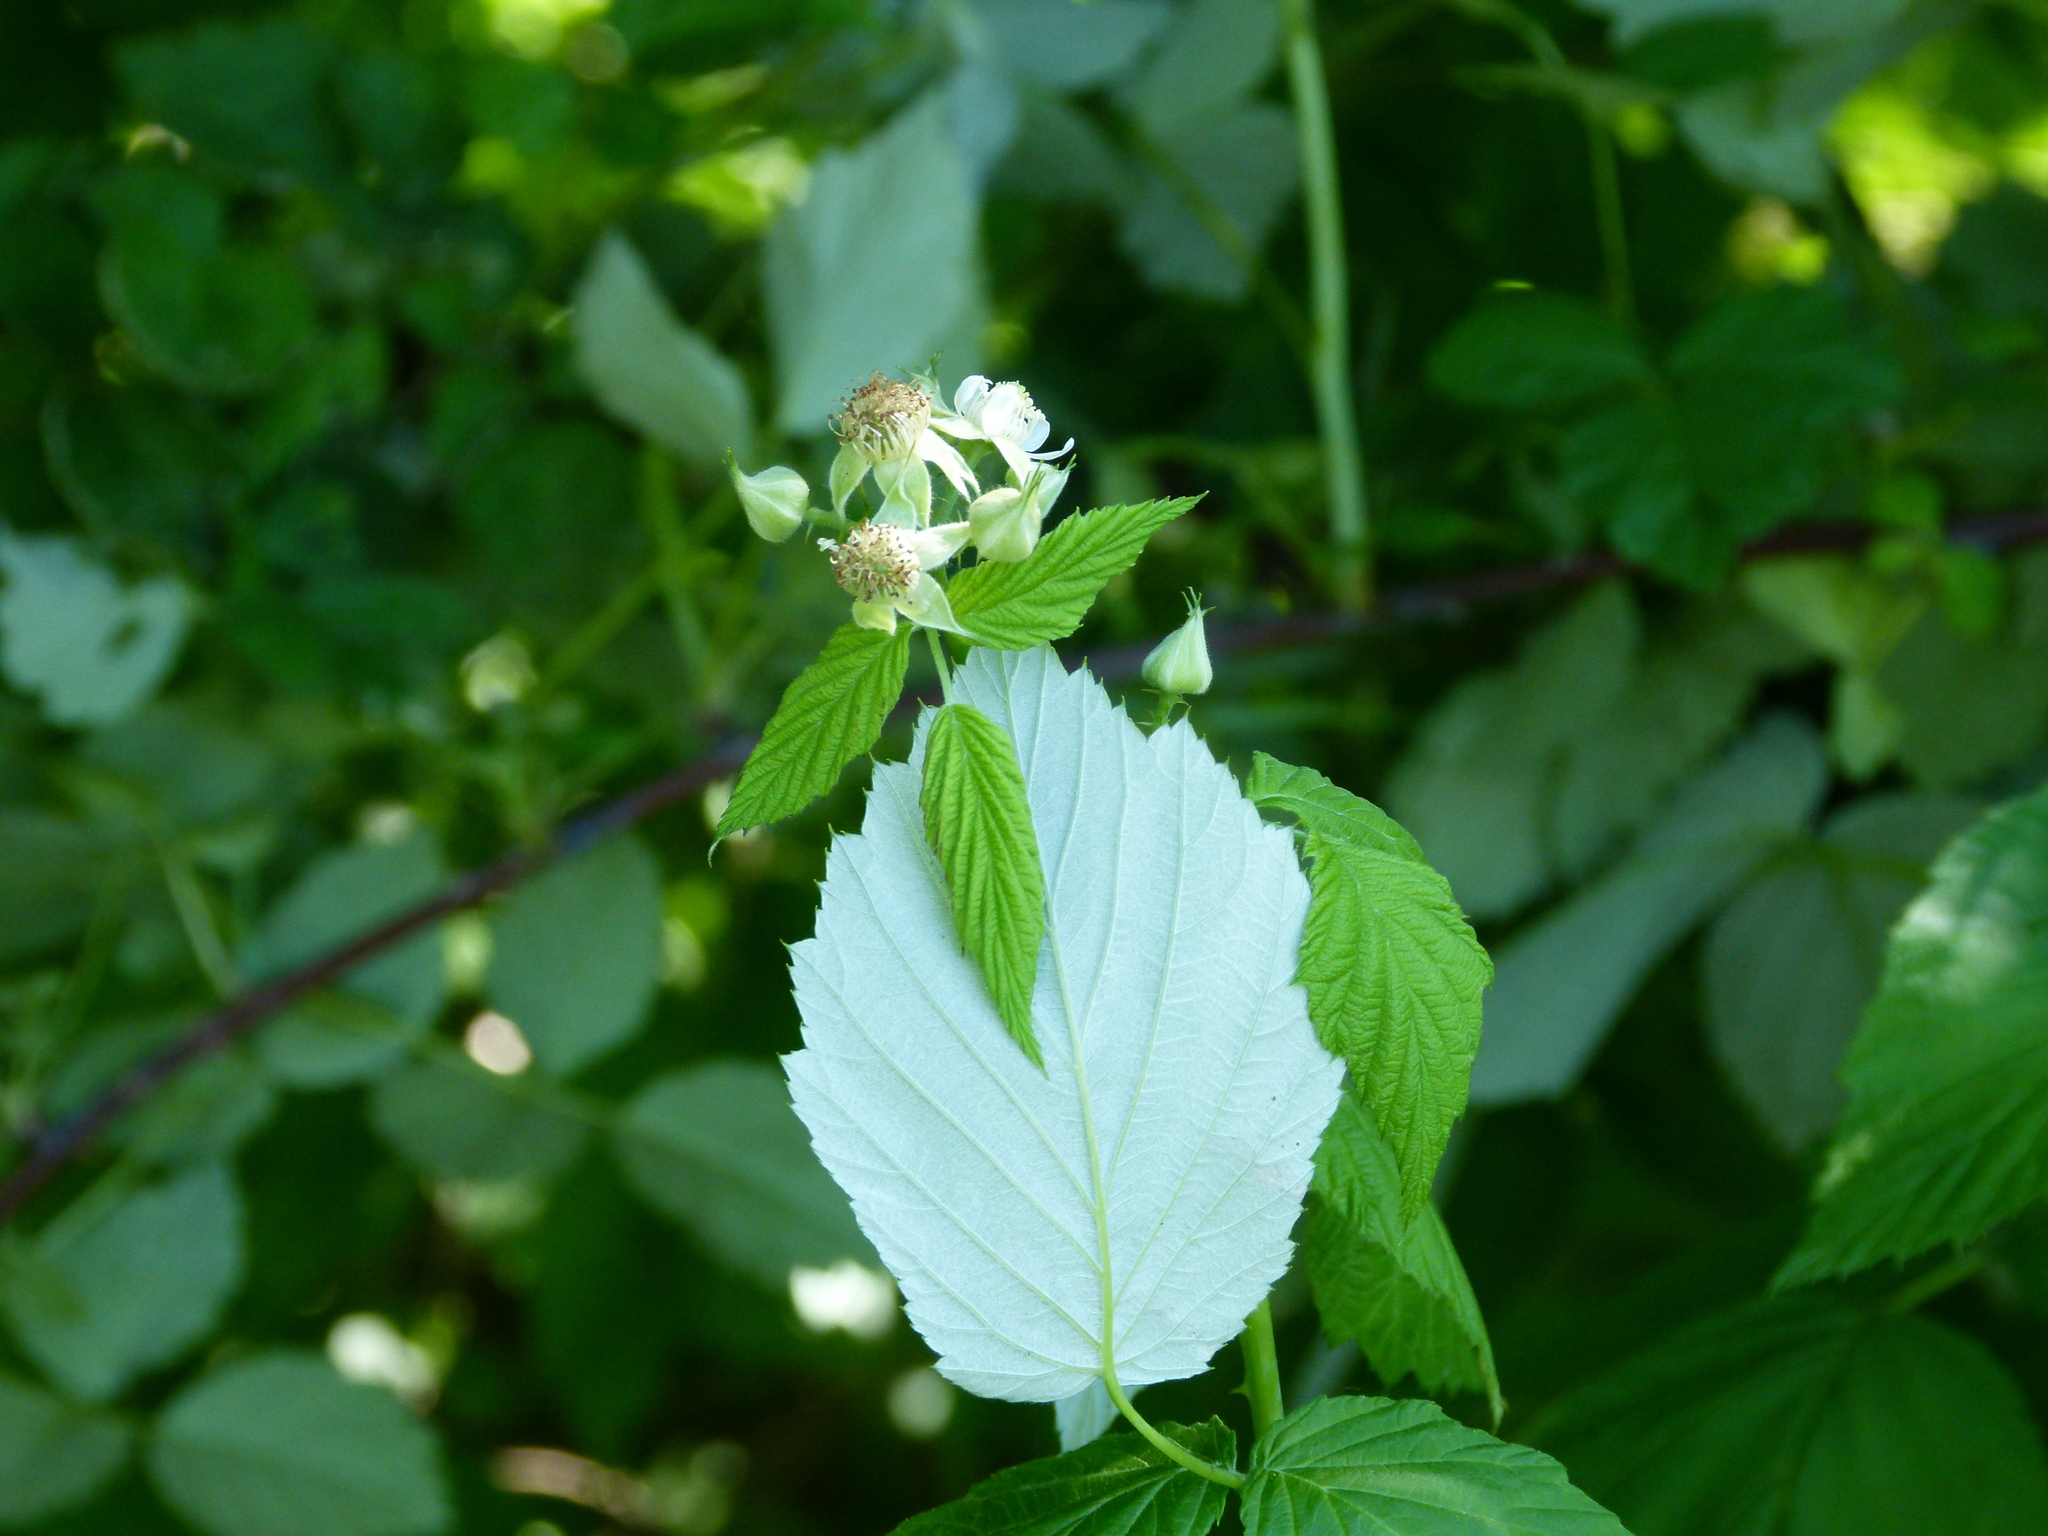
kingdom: Plantae
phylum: Tracheophyta
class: Magnoliopsida
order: Rosales
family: Rosaceae
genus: Rubus
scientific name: Rubus occidentalis
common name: Black raspberry
